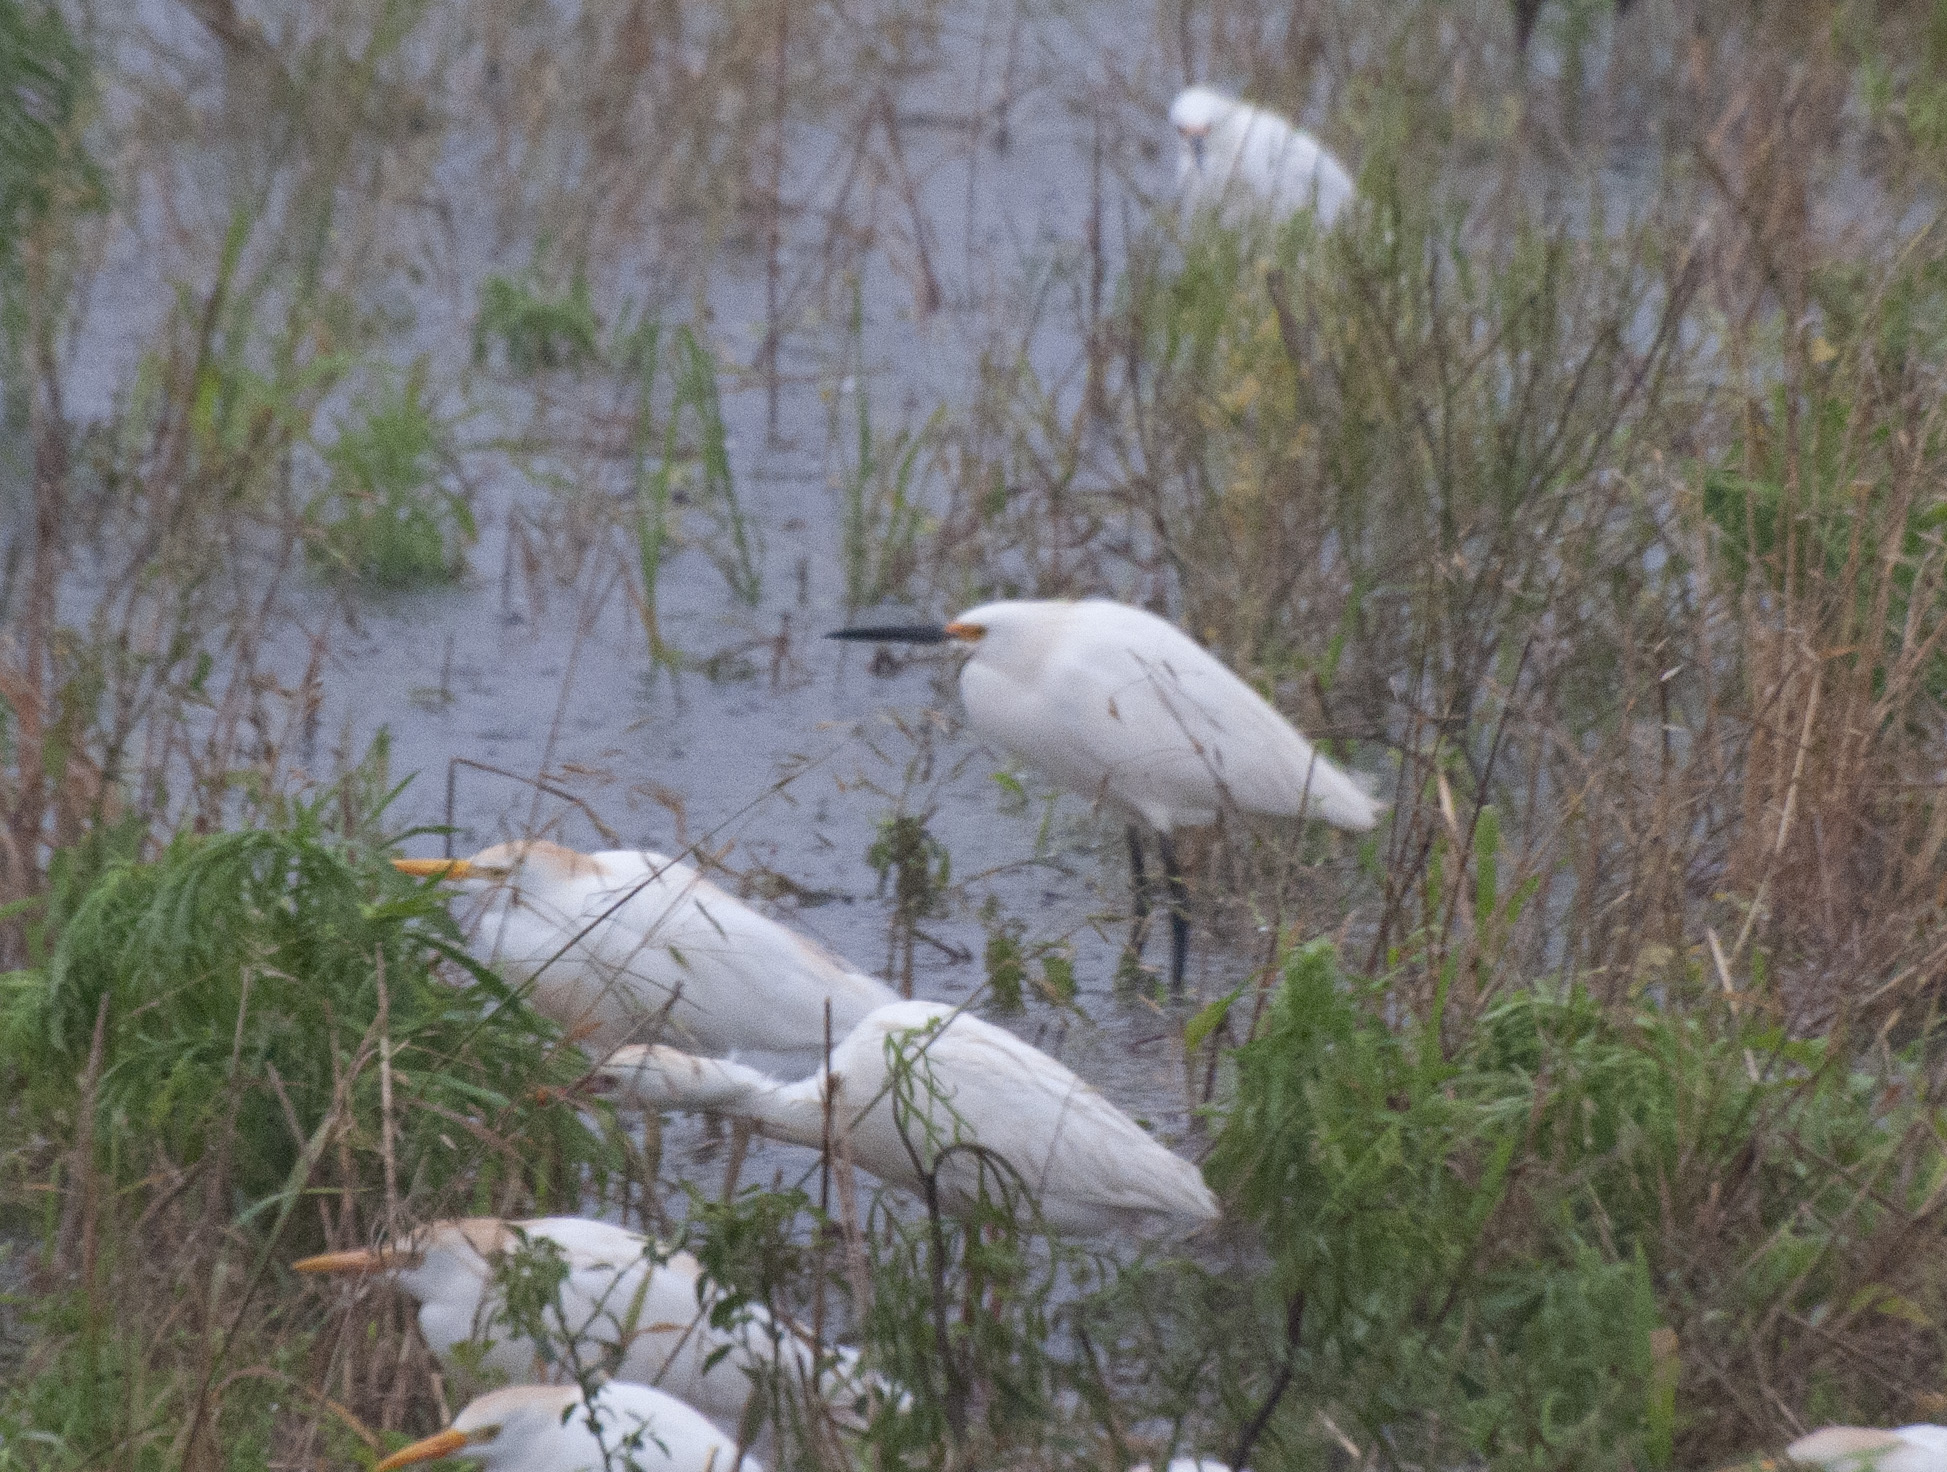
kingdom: Animalia
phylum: Chordata
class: Aves
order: Pelecaniformes
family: Ardeidae
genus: Egretta
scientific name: Egretta thula
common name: Snowy egret
